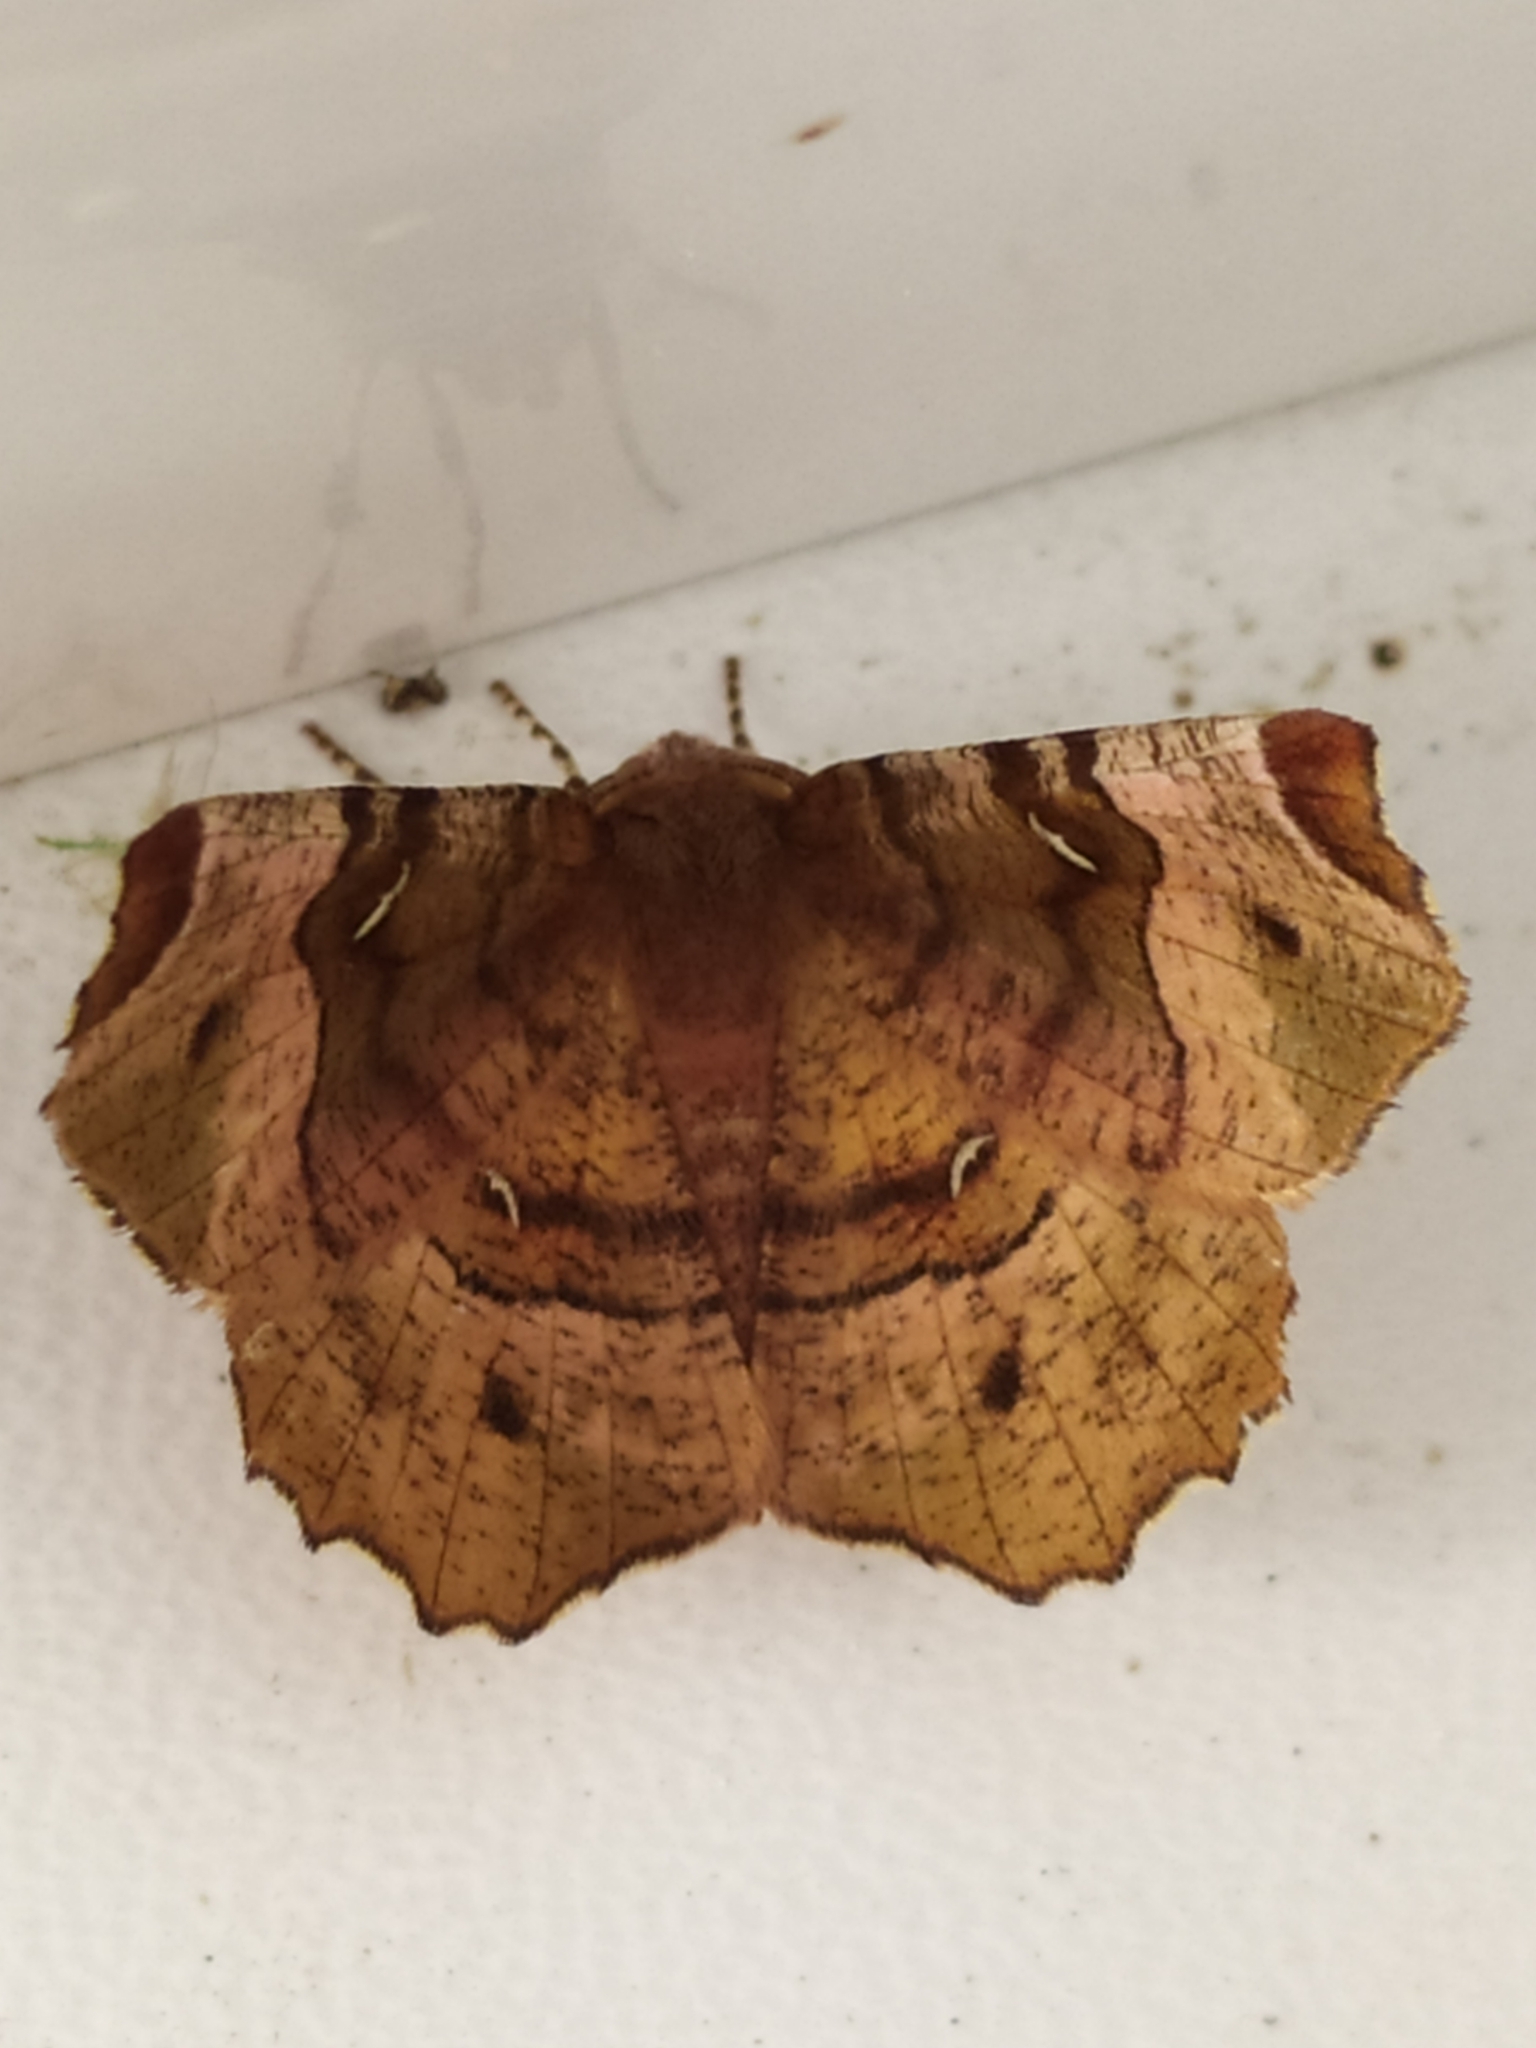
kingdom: Animalia
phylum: Arthropoda
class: Insecta
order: Lepidoptera
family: Geometridae
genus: Selenia
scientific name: Selenia tetralunaria
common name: Purple thorn
